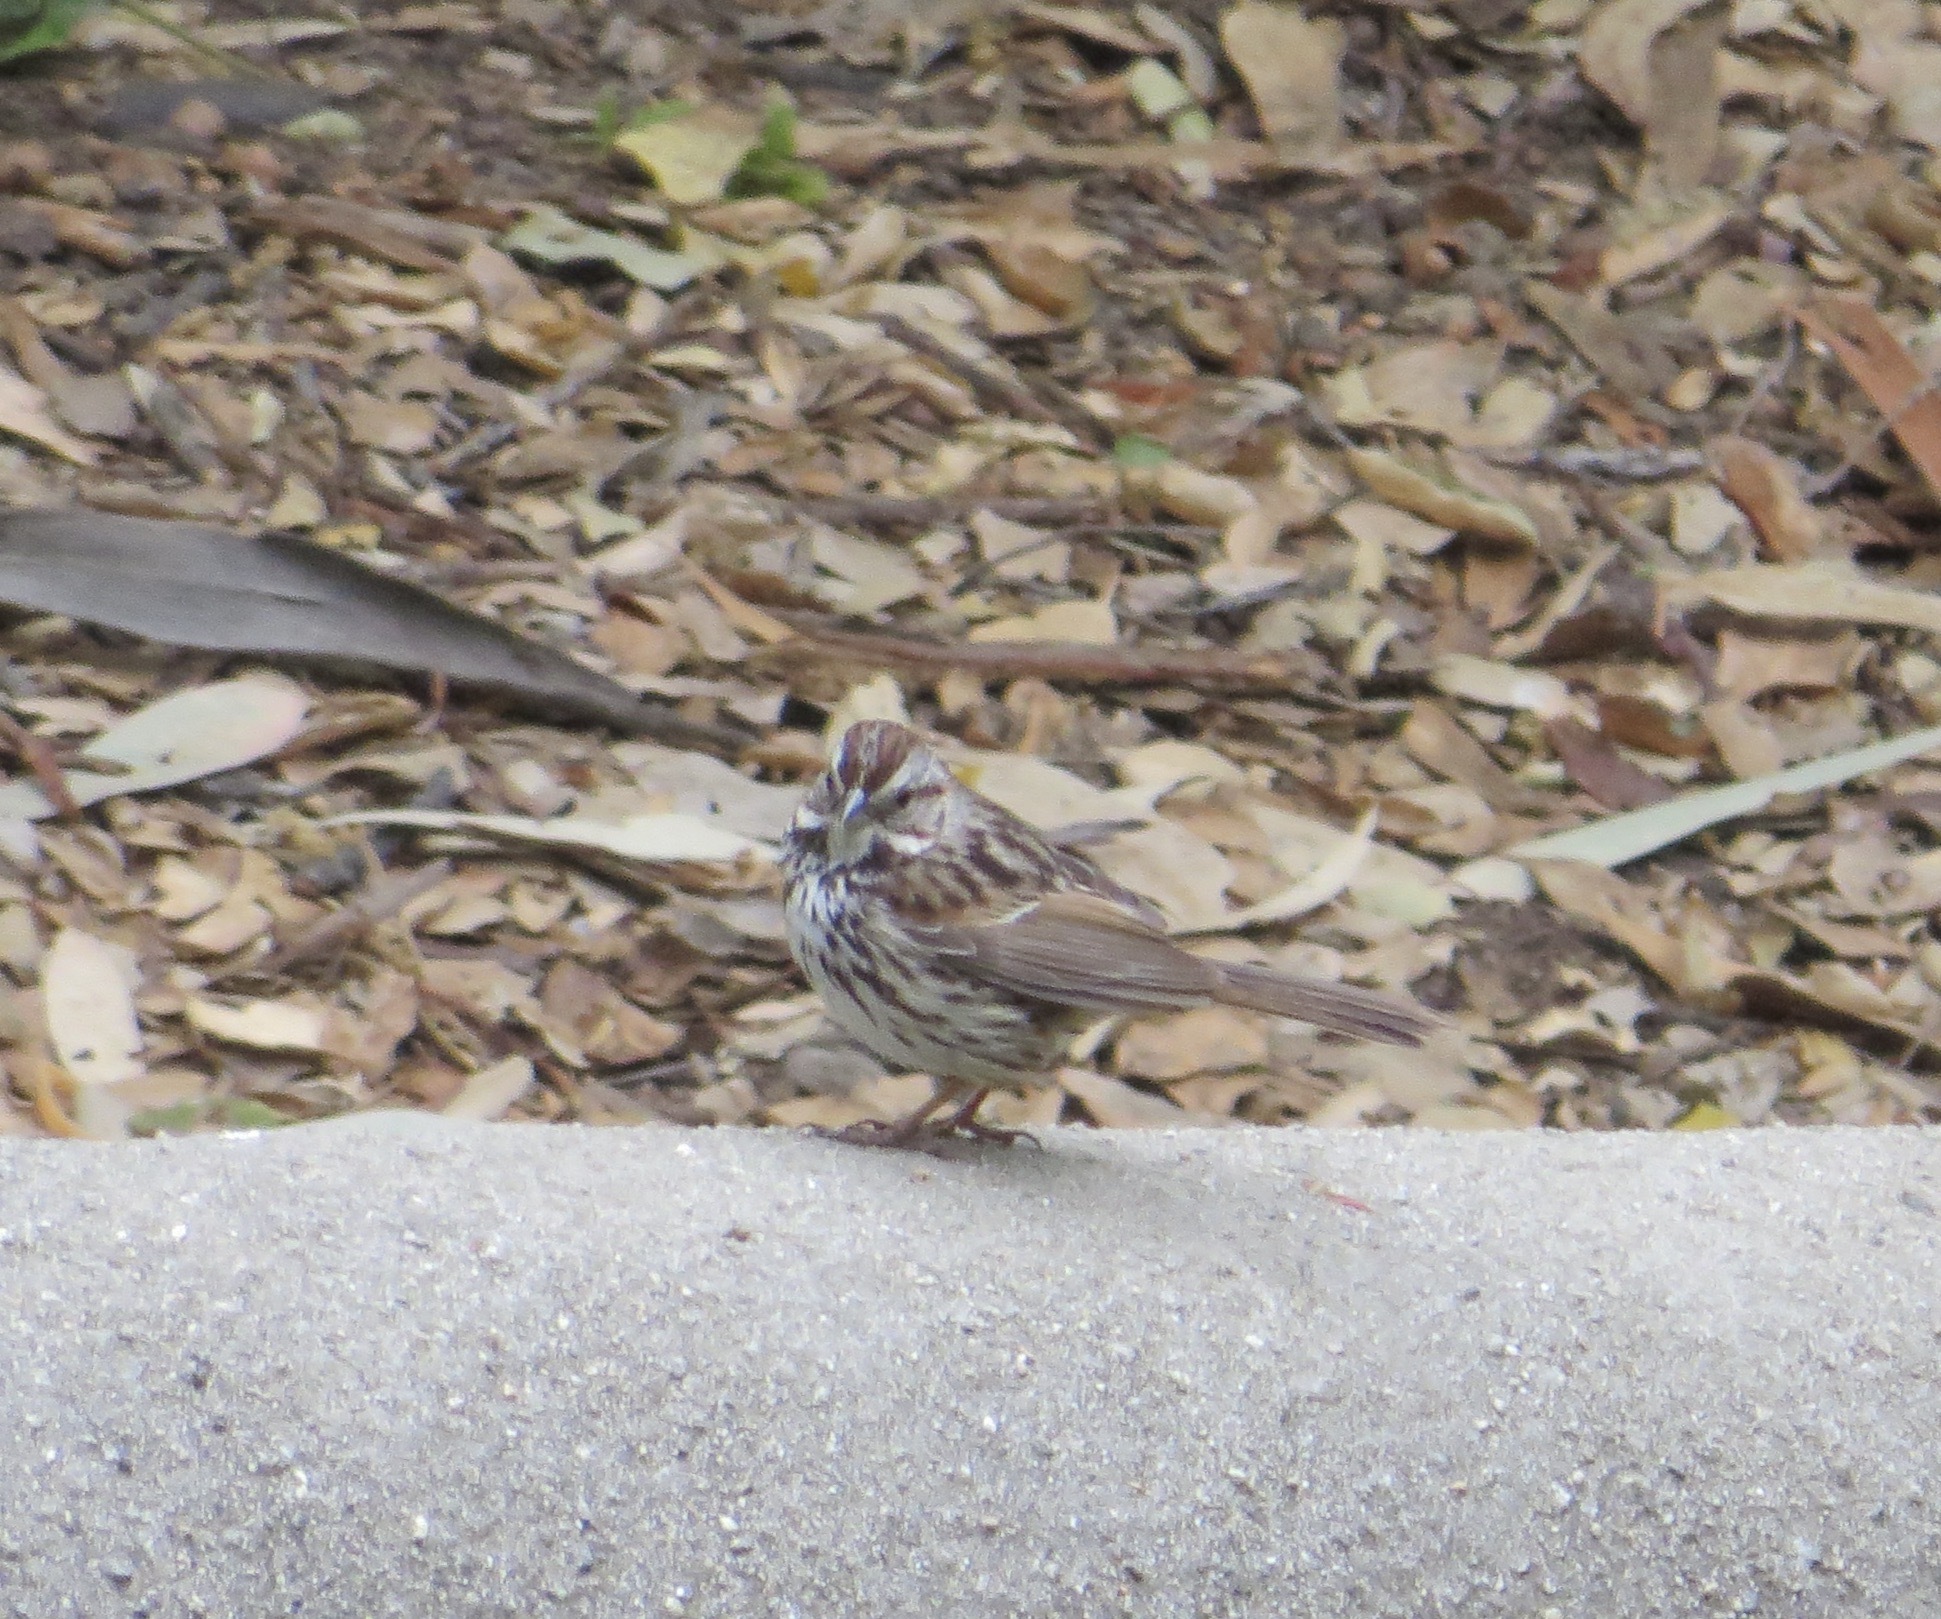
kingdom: Animalia
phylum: Chordata
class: Aves
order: Passeriformes
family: Passerellidae
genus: Melospiza
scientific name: Melospiza melodia
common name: Song sparrow
